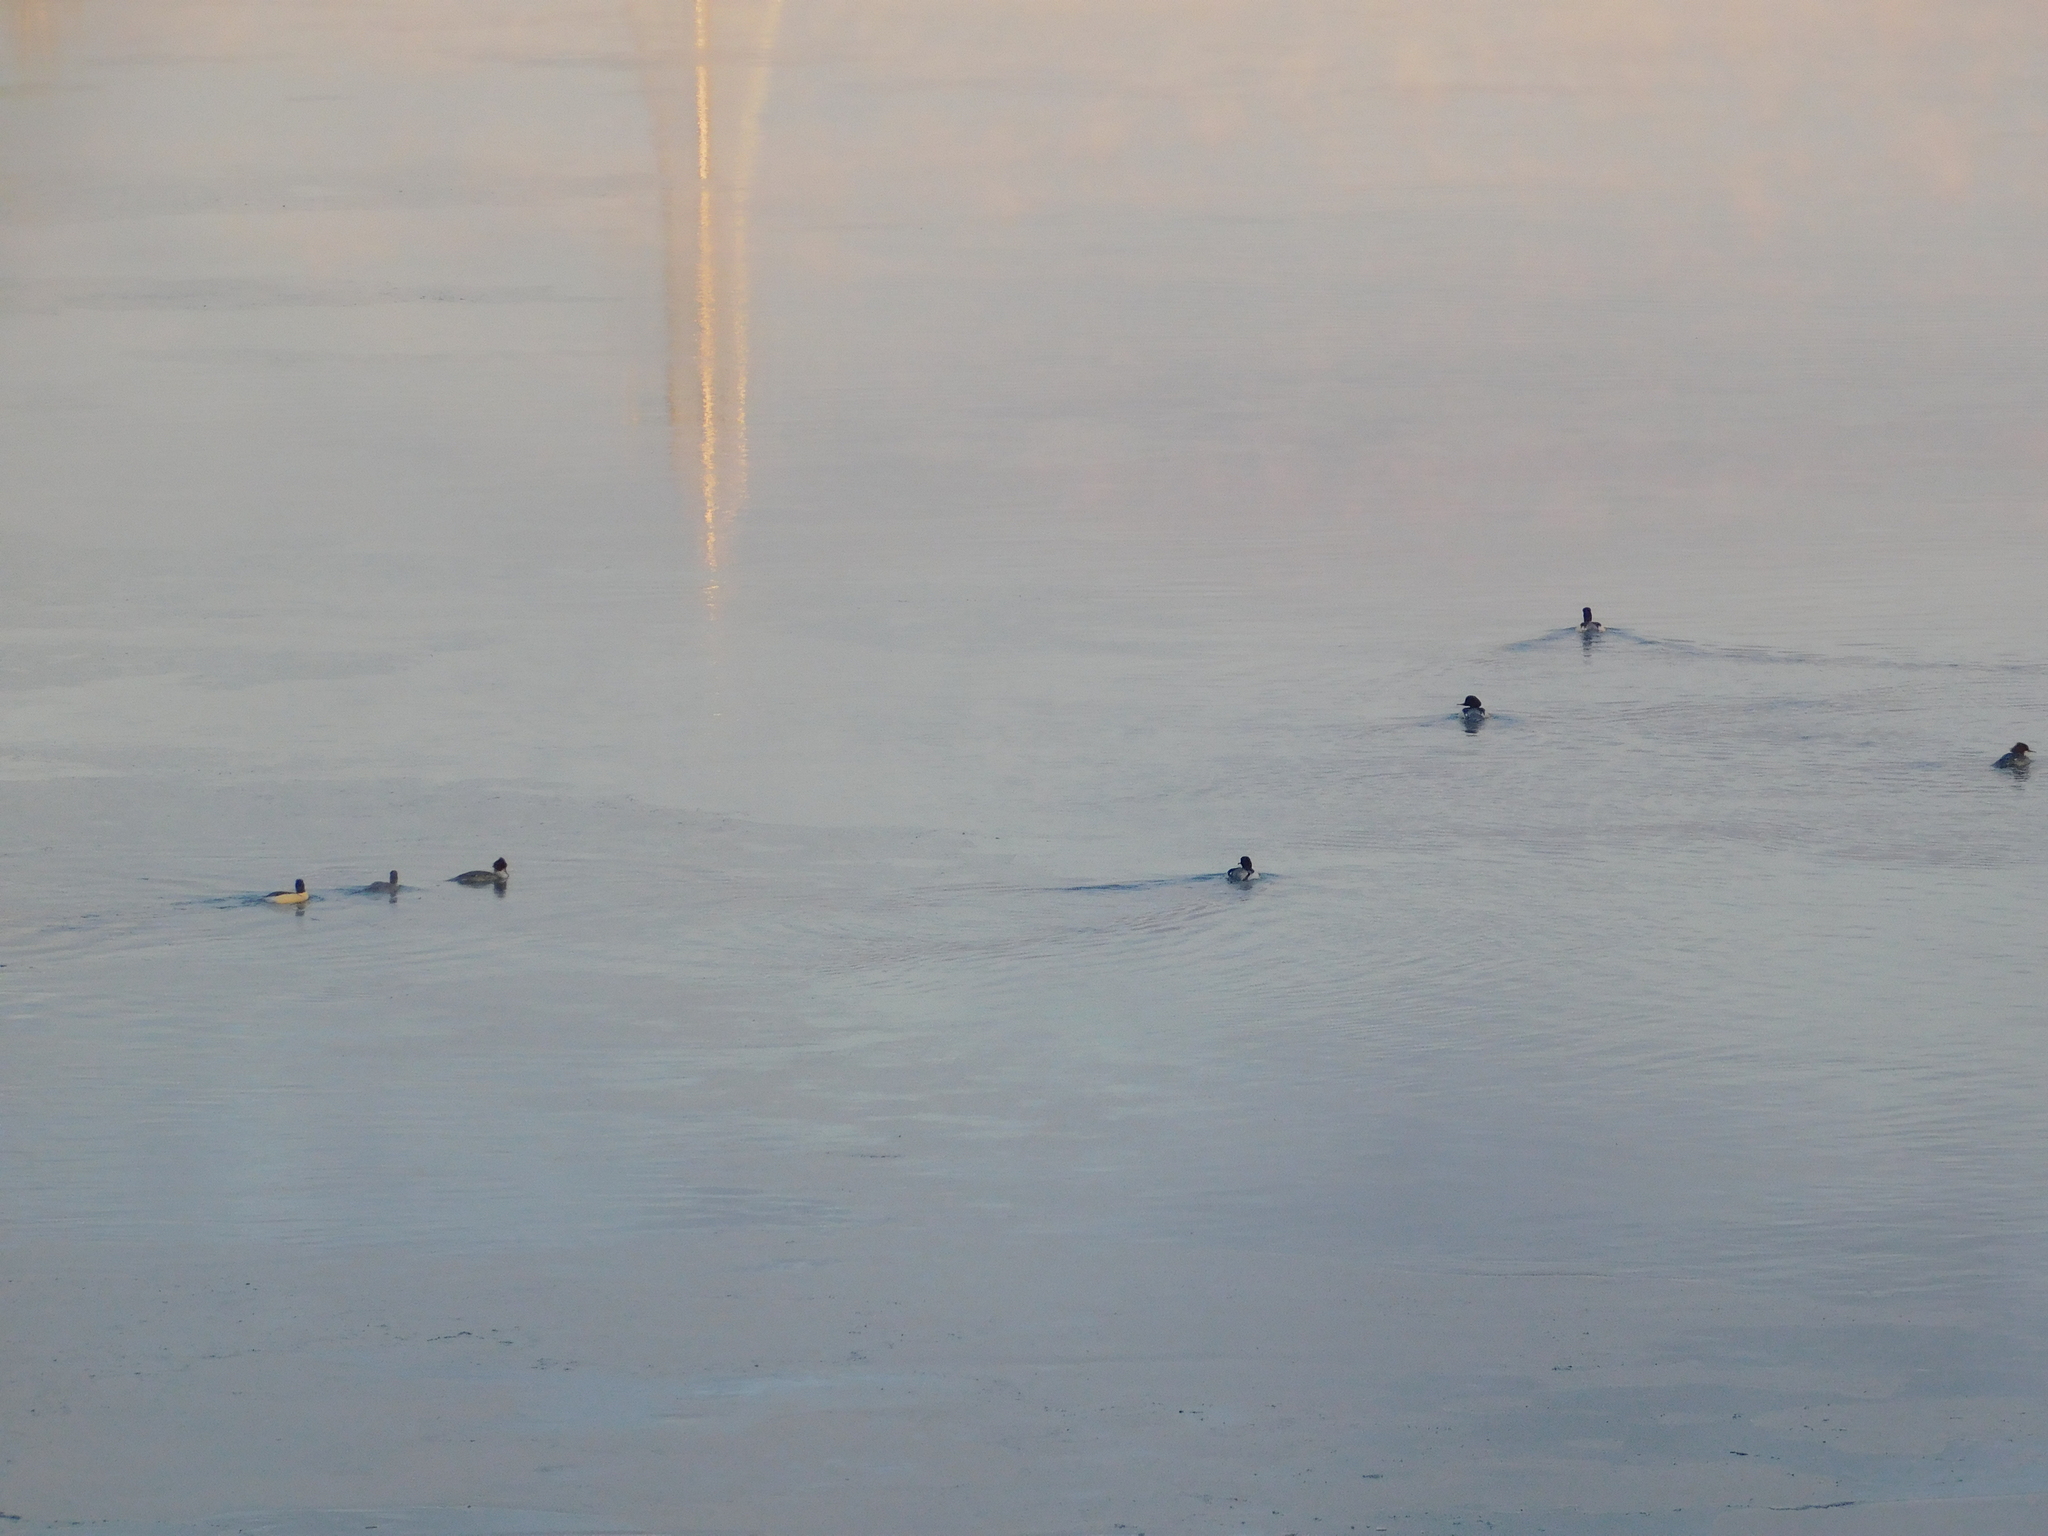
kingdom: Animalia
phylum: Chordata
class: Aves
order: Anseriformes
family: Anatidae
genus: Mergus
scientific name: Mergus merganser
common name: Common merganser
